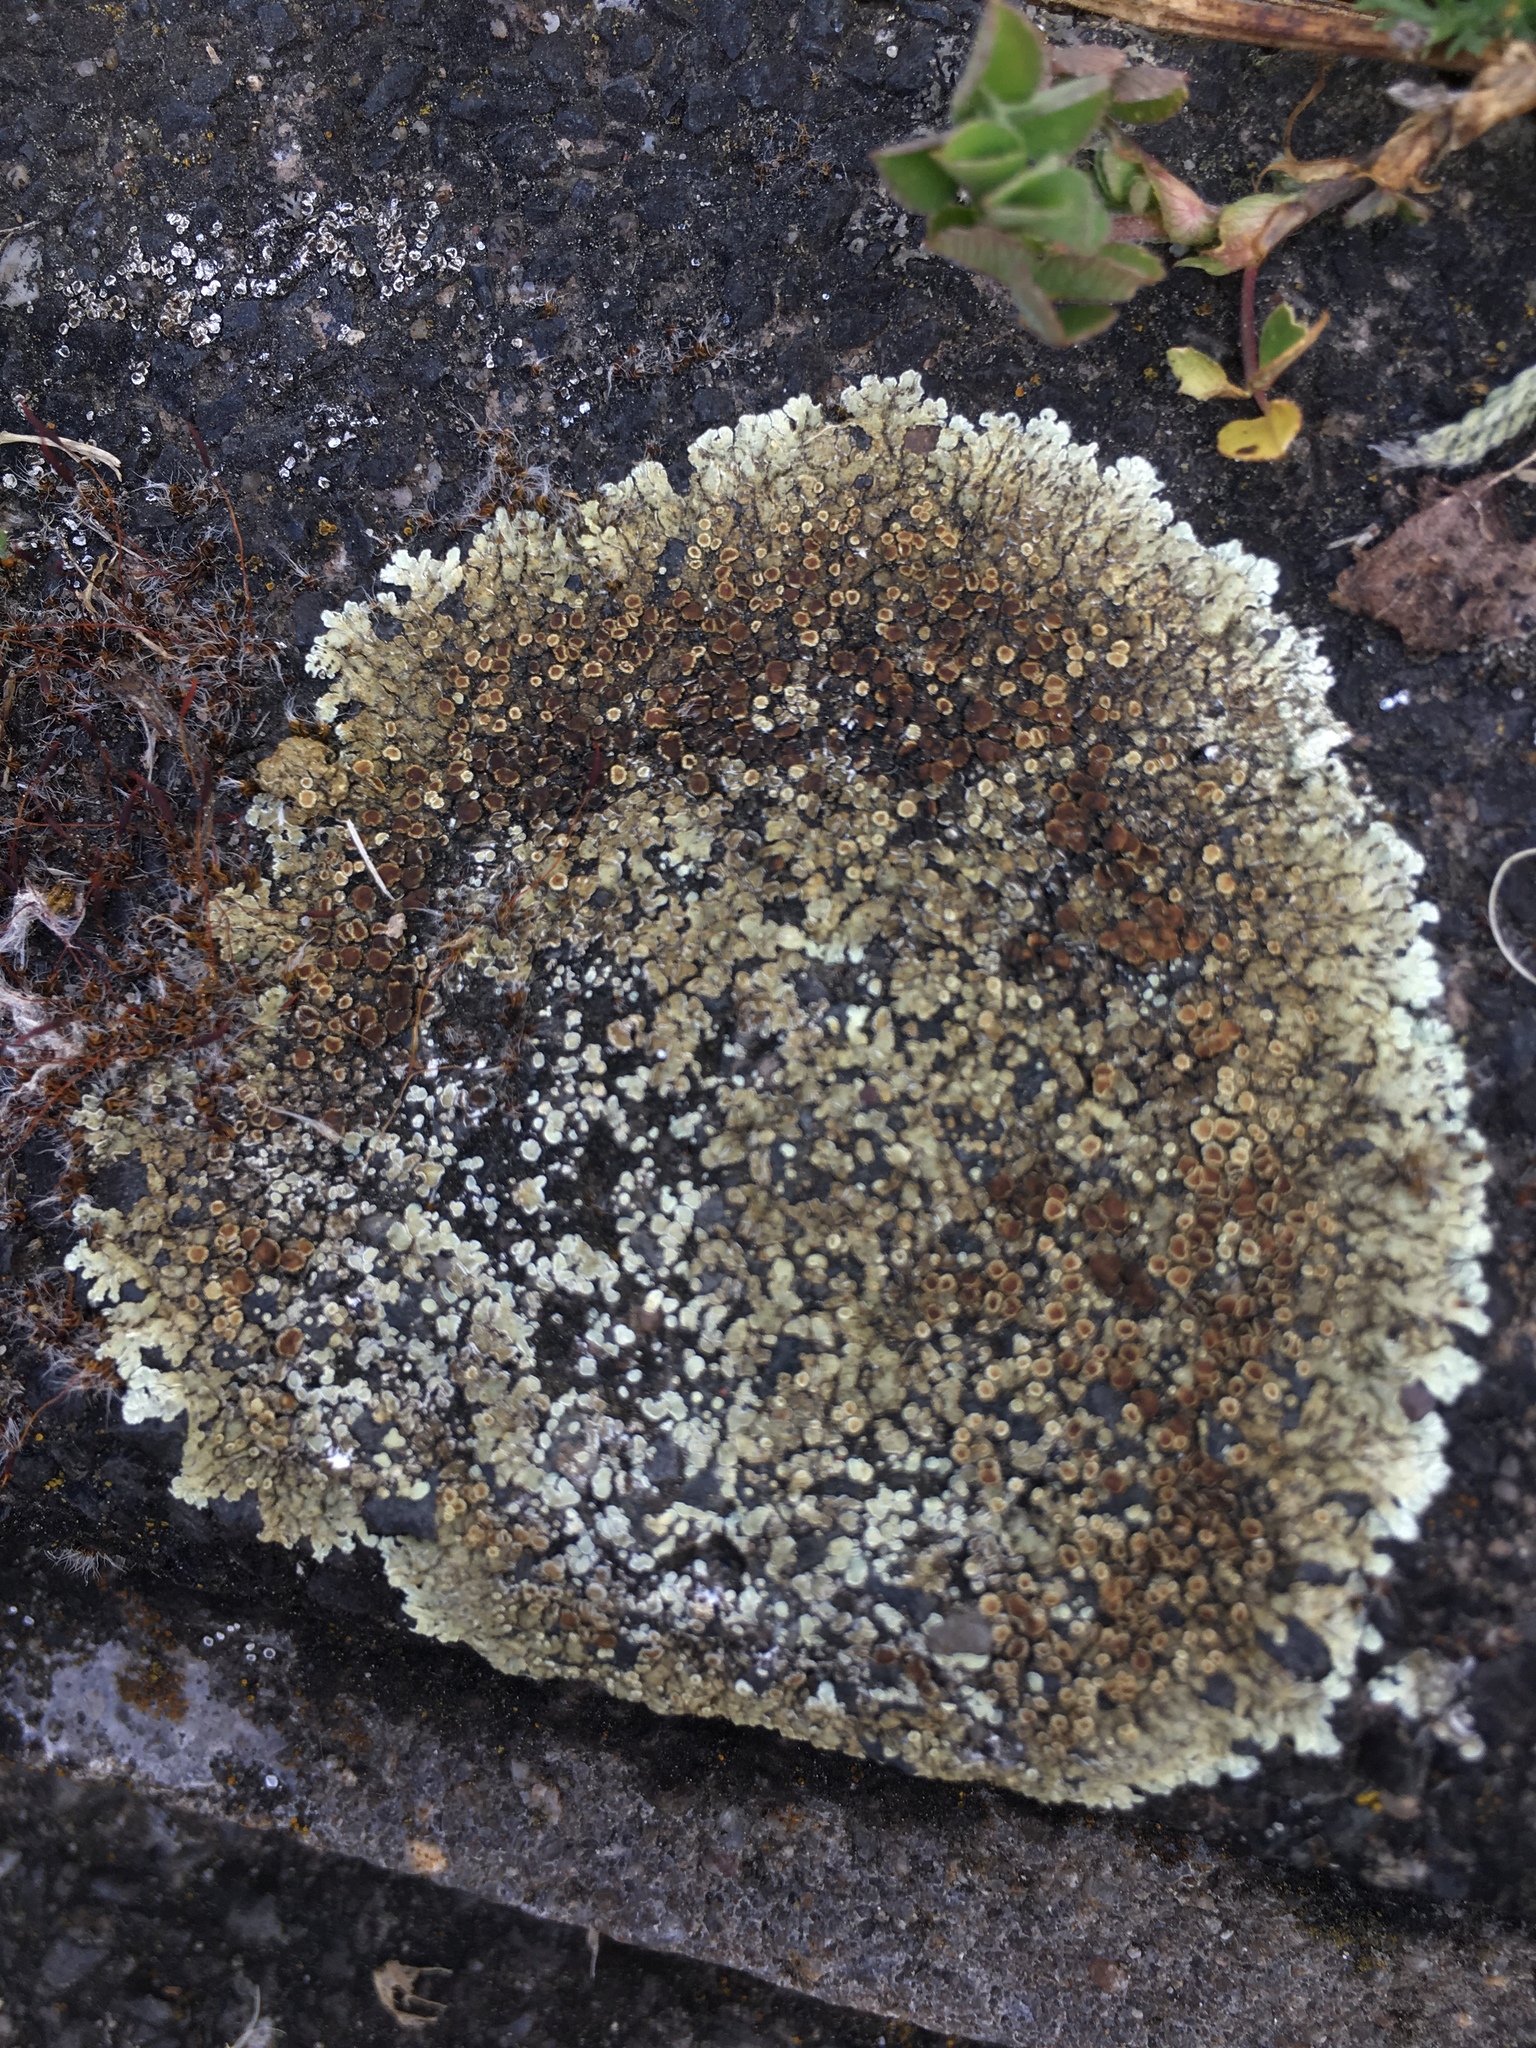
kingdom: Fungi
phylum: Ascomycota
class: Lecanoromycetes
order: Lecanorales
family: Lecanoraceae
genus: Protoparmeliopsis
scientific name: Protoparmeliopsis muralis
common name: Stonewall rim lichen
